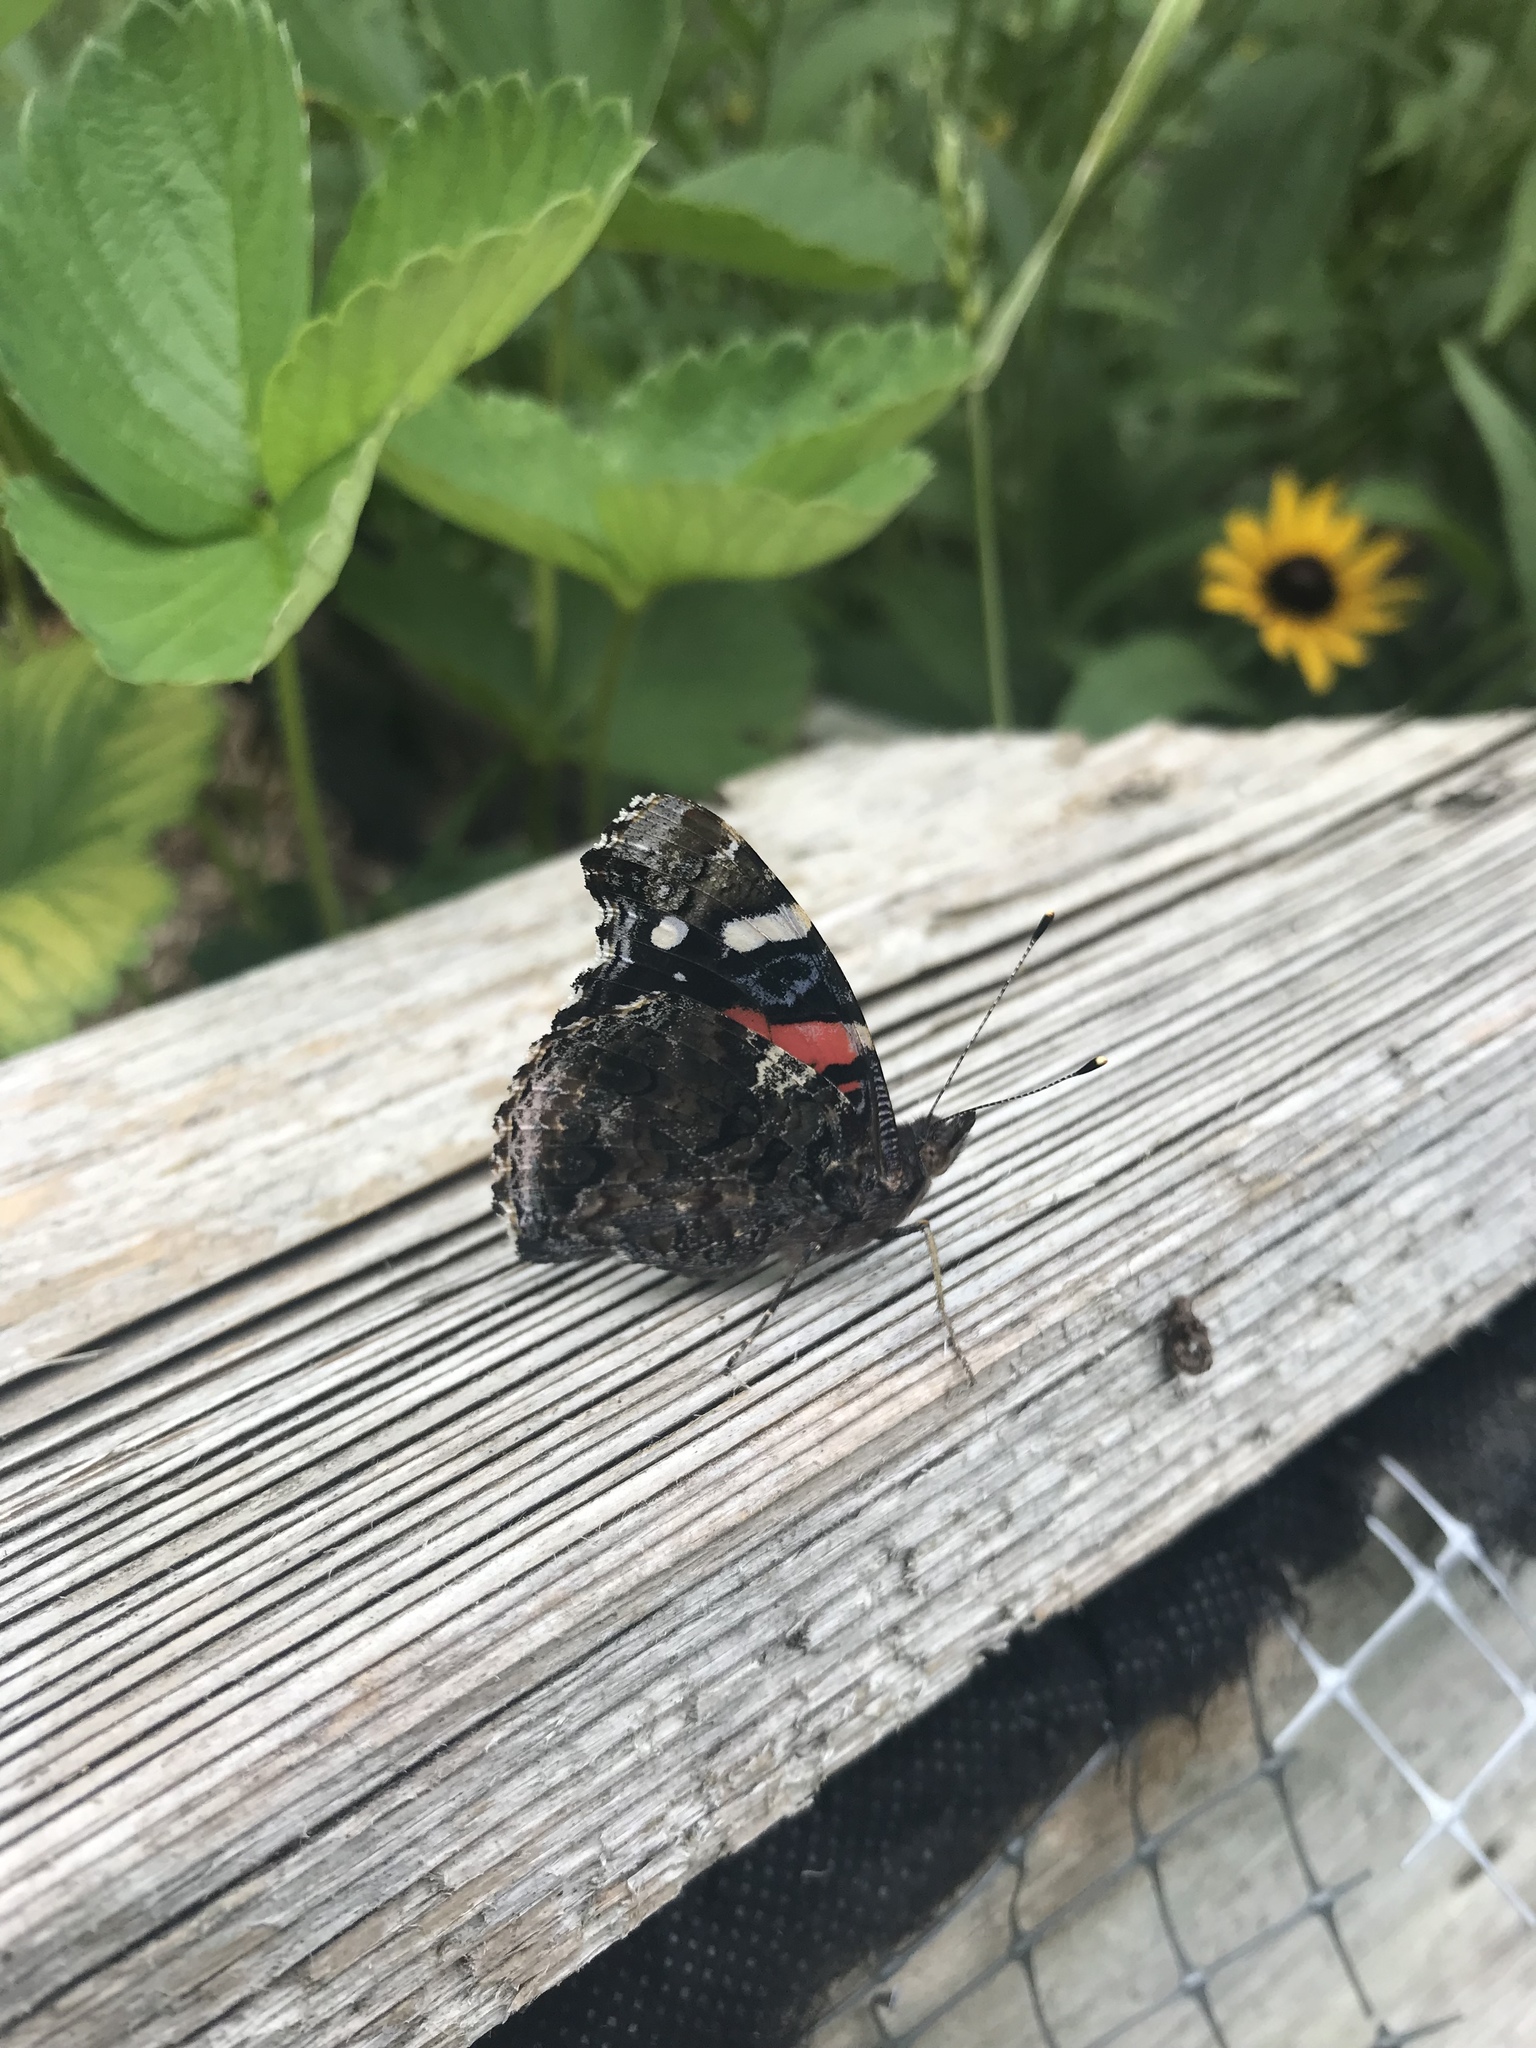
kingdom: Animalia
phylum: Arthropoda
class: Insecta
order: Lepidoptera
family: Nymphalidae
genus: Vanessa
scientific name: Vanessa atalanta
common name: Red admiral
